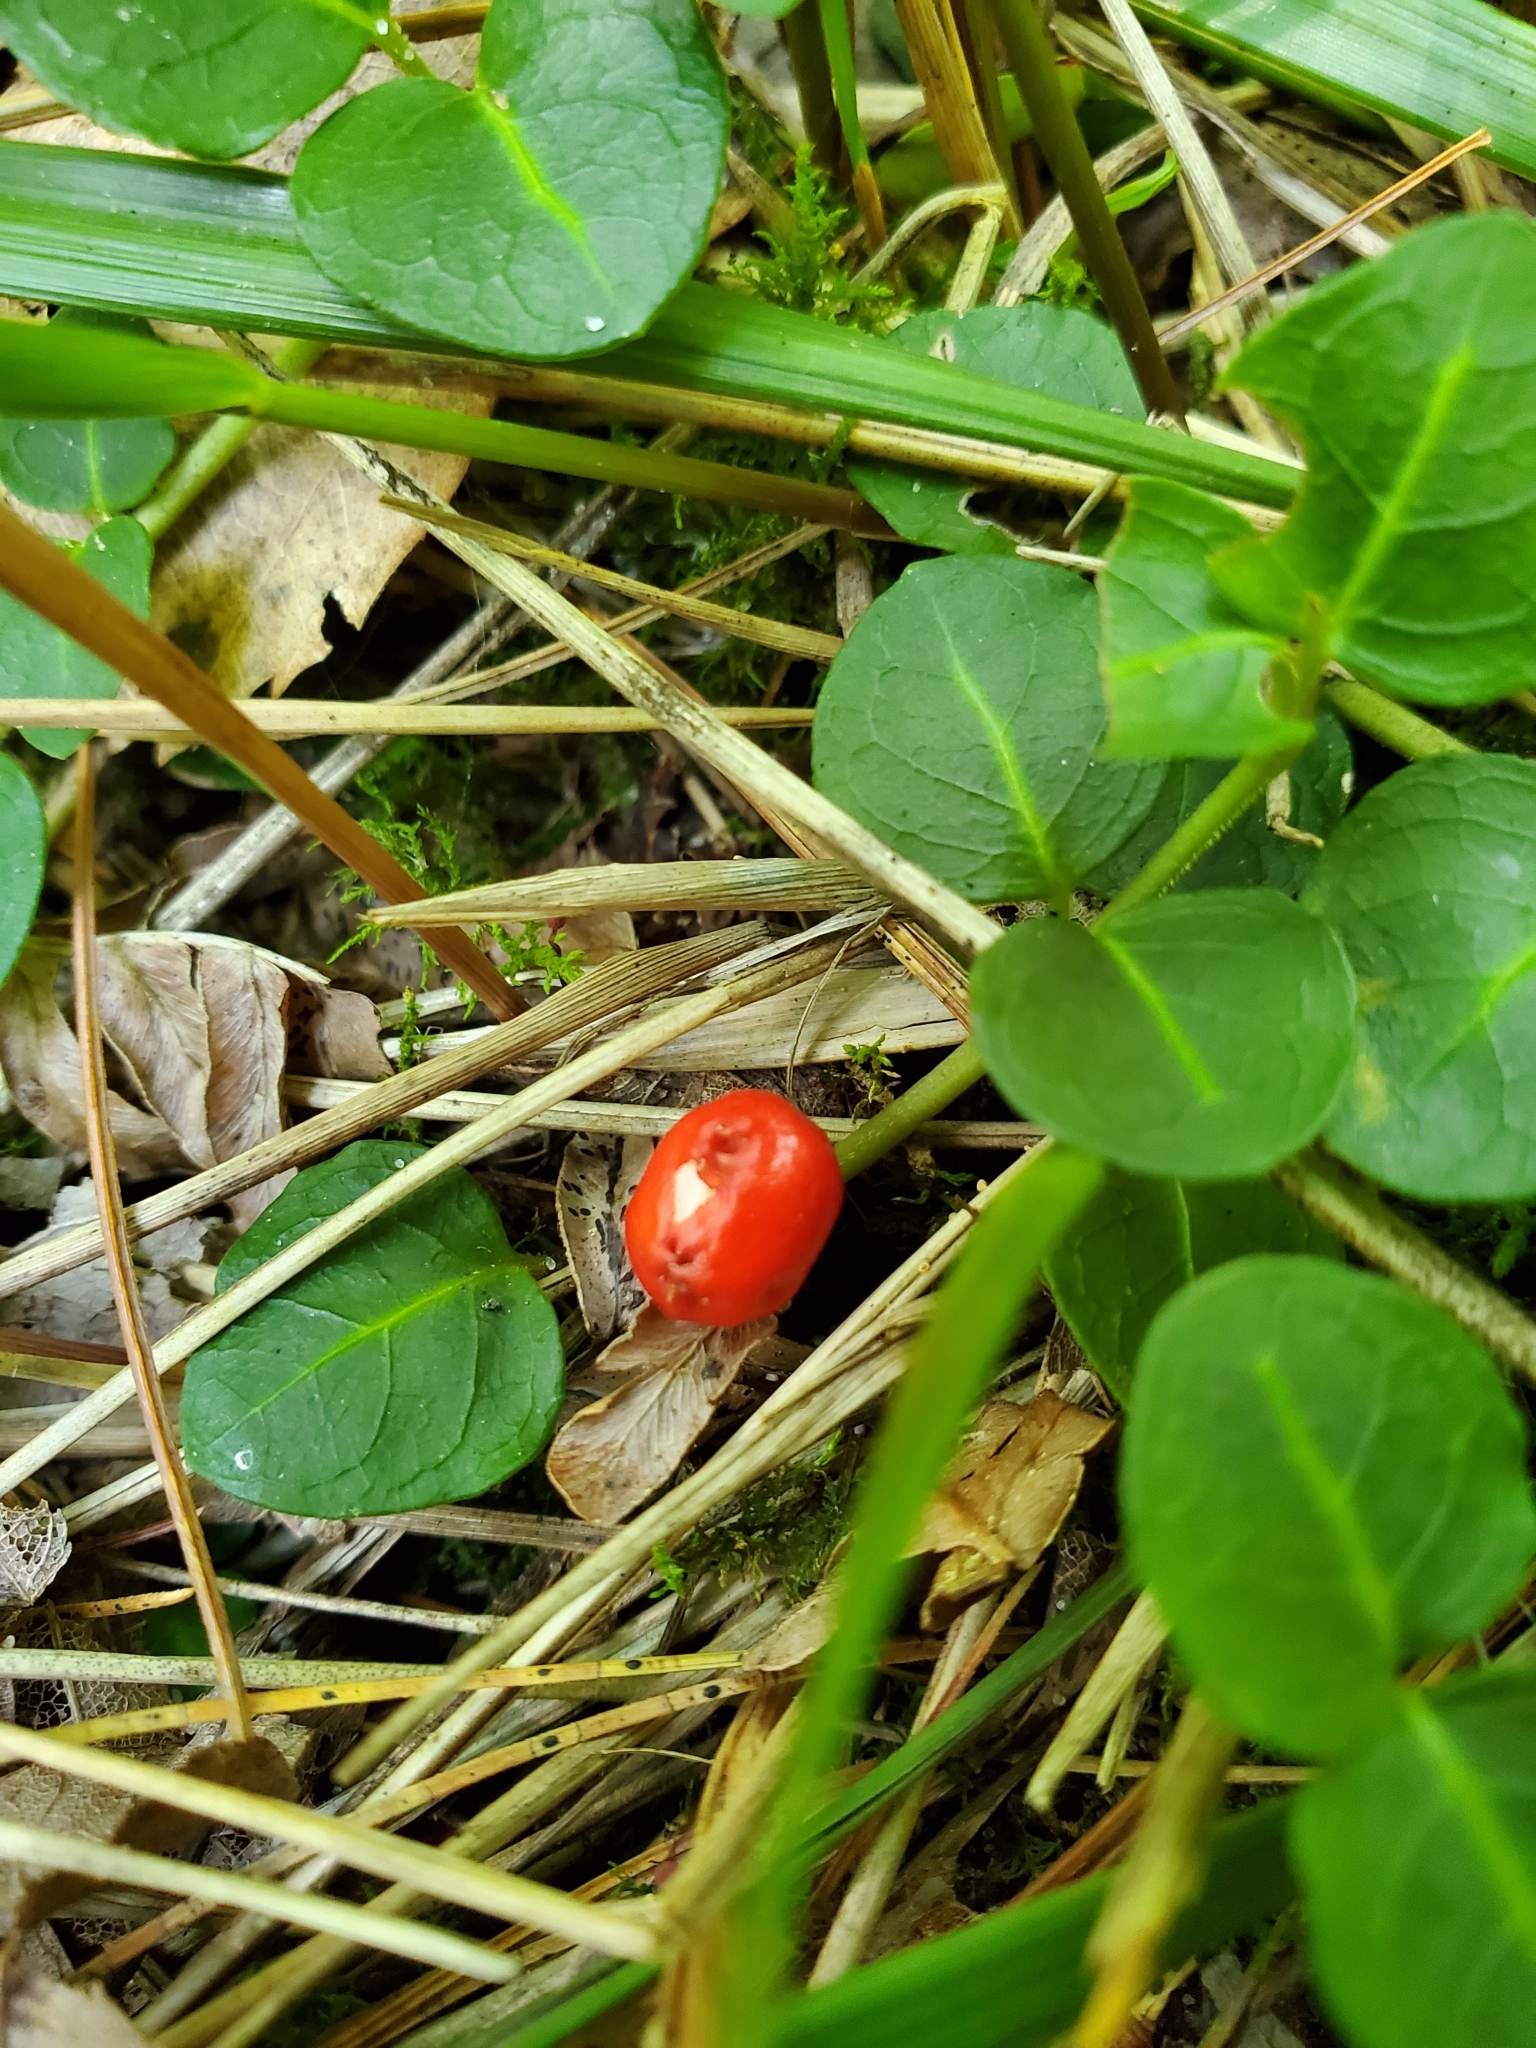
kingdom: Plantae
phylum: Tracheophyta
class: Magnoliopsida
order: Gentianales
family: Rubiaceae
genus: Mitchella
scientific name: Mitchella repens
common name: Partridge-berry
